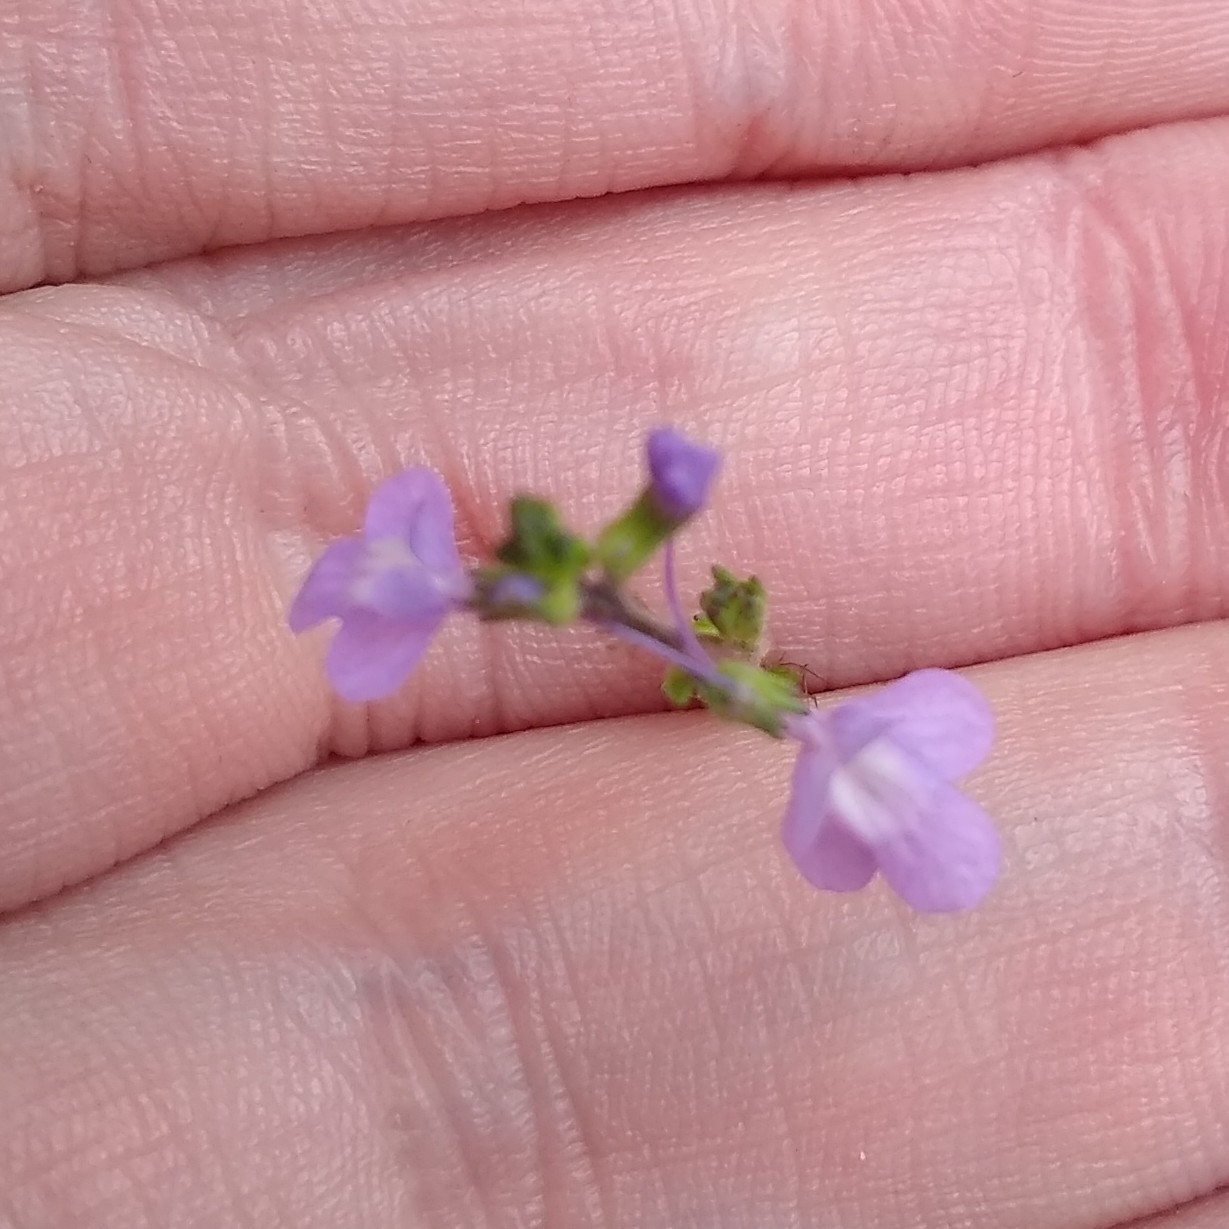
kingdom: Plantae
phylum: Tracheophyta
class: Magnoliopsida
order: Lamiales
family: Plantaginaceae
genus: Nuttallanthus
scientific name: Nuttallanthus canadensis
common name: Blue toadflax
